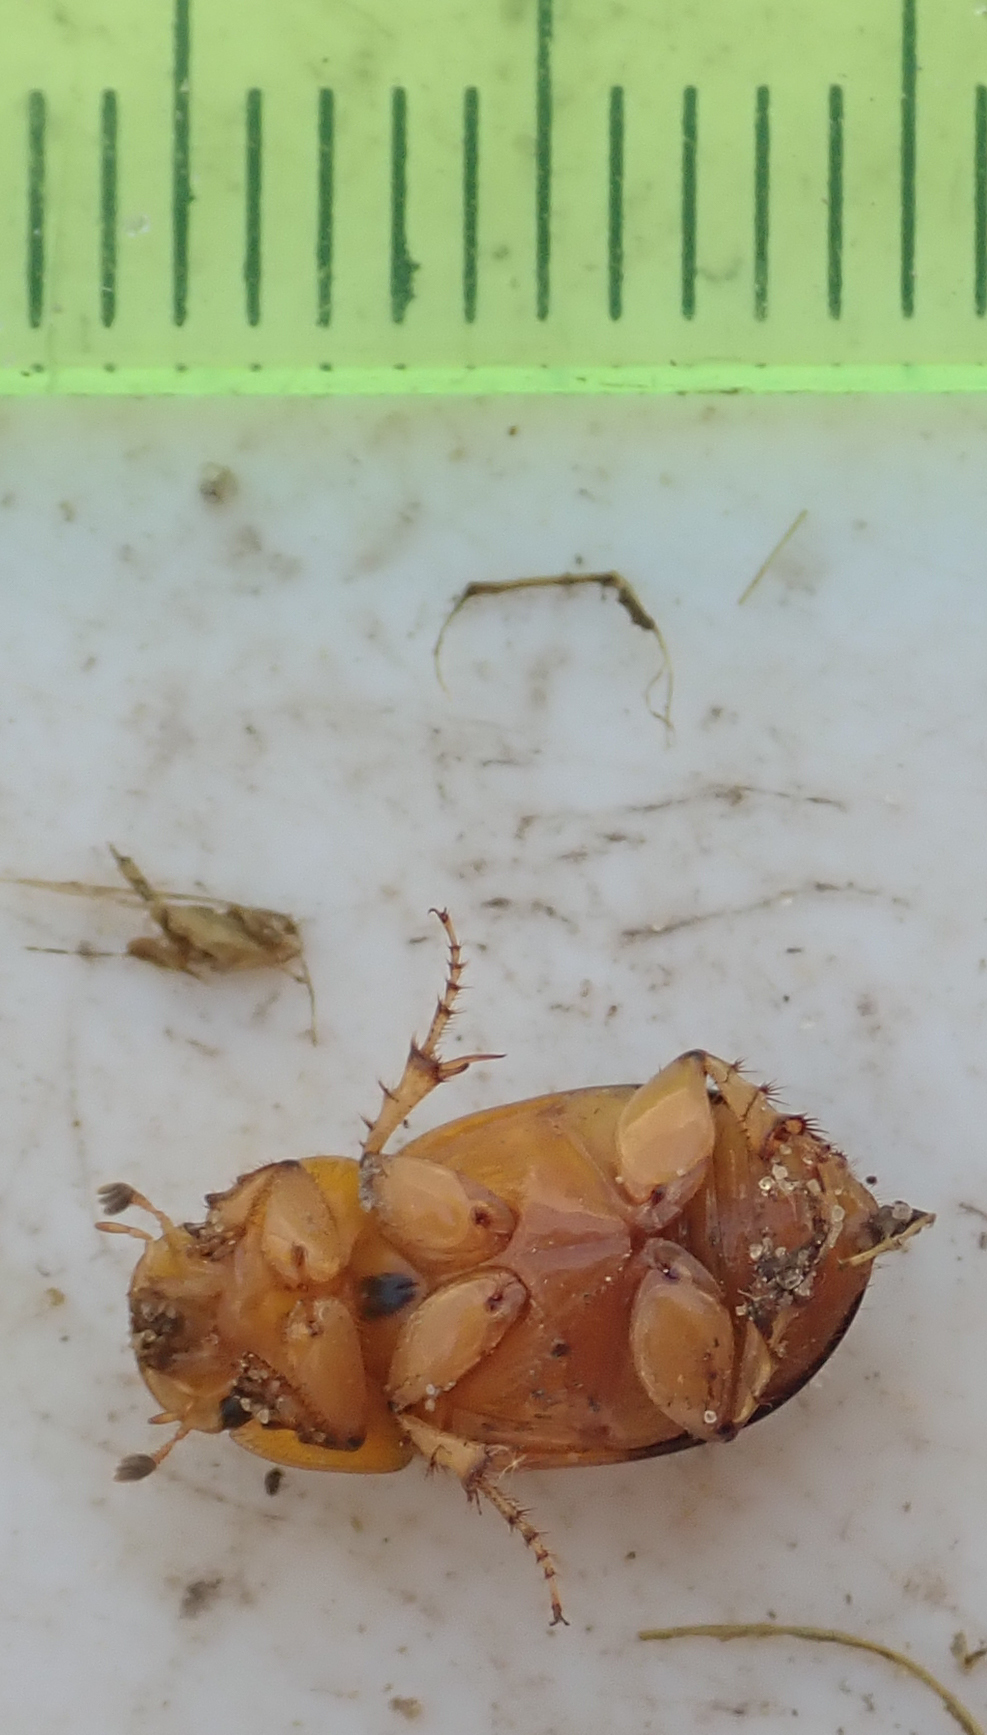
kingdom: Animalia
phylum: Arthropoda
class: Insecta
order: Coleoptera
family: Scarabaeidae
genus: Adeloparius
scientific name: Adeloparius septemmaculatus
